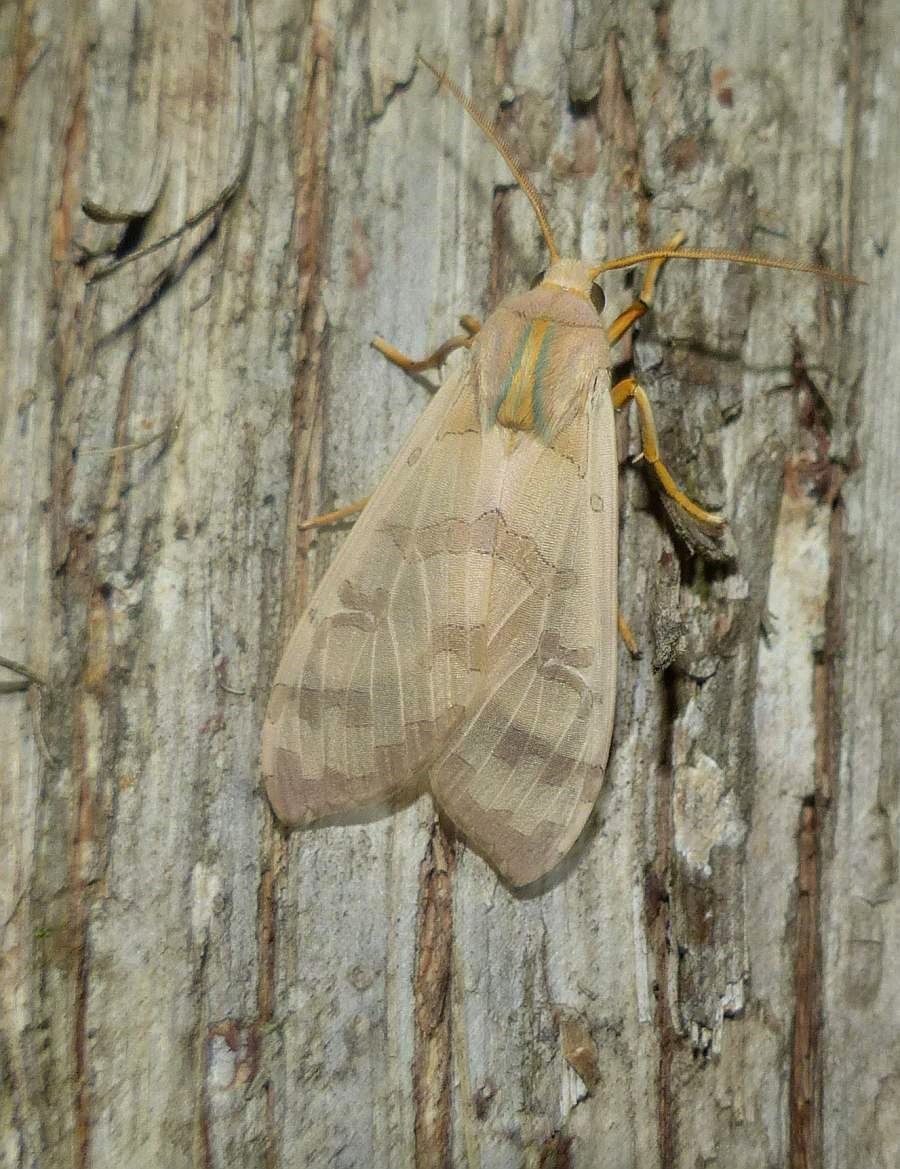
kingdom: Animalia
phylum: Arthropoda
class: Insecta
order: Lepidoptera
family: Erebidae
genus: Halysidota
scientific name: Halysidota tessellaris
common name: Banded tussock moth
